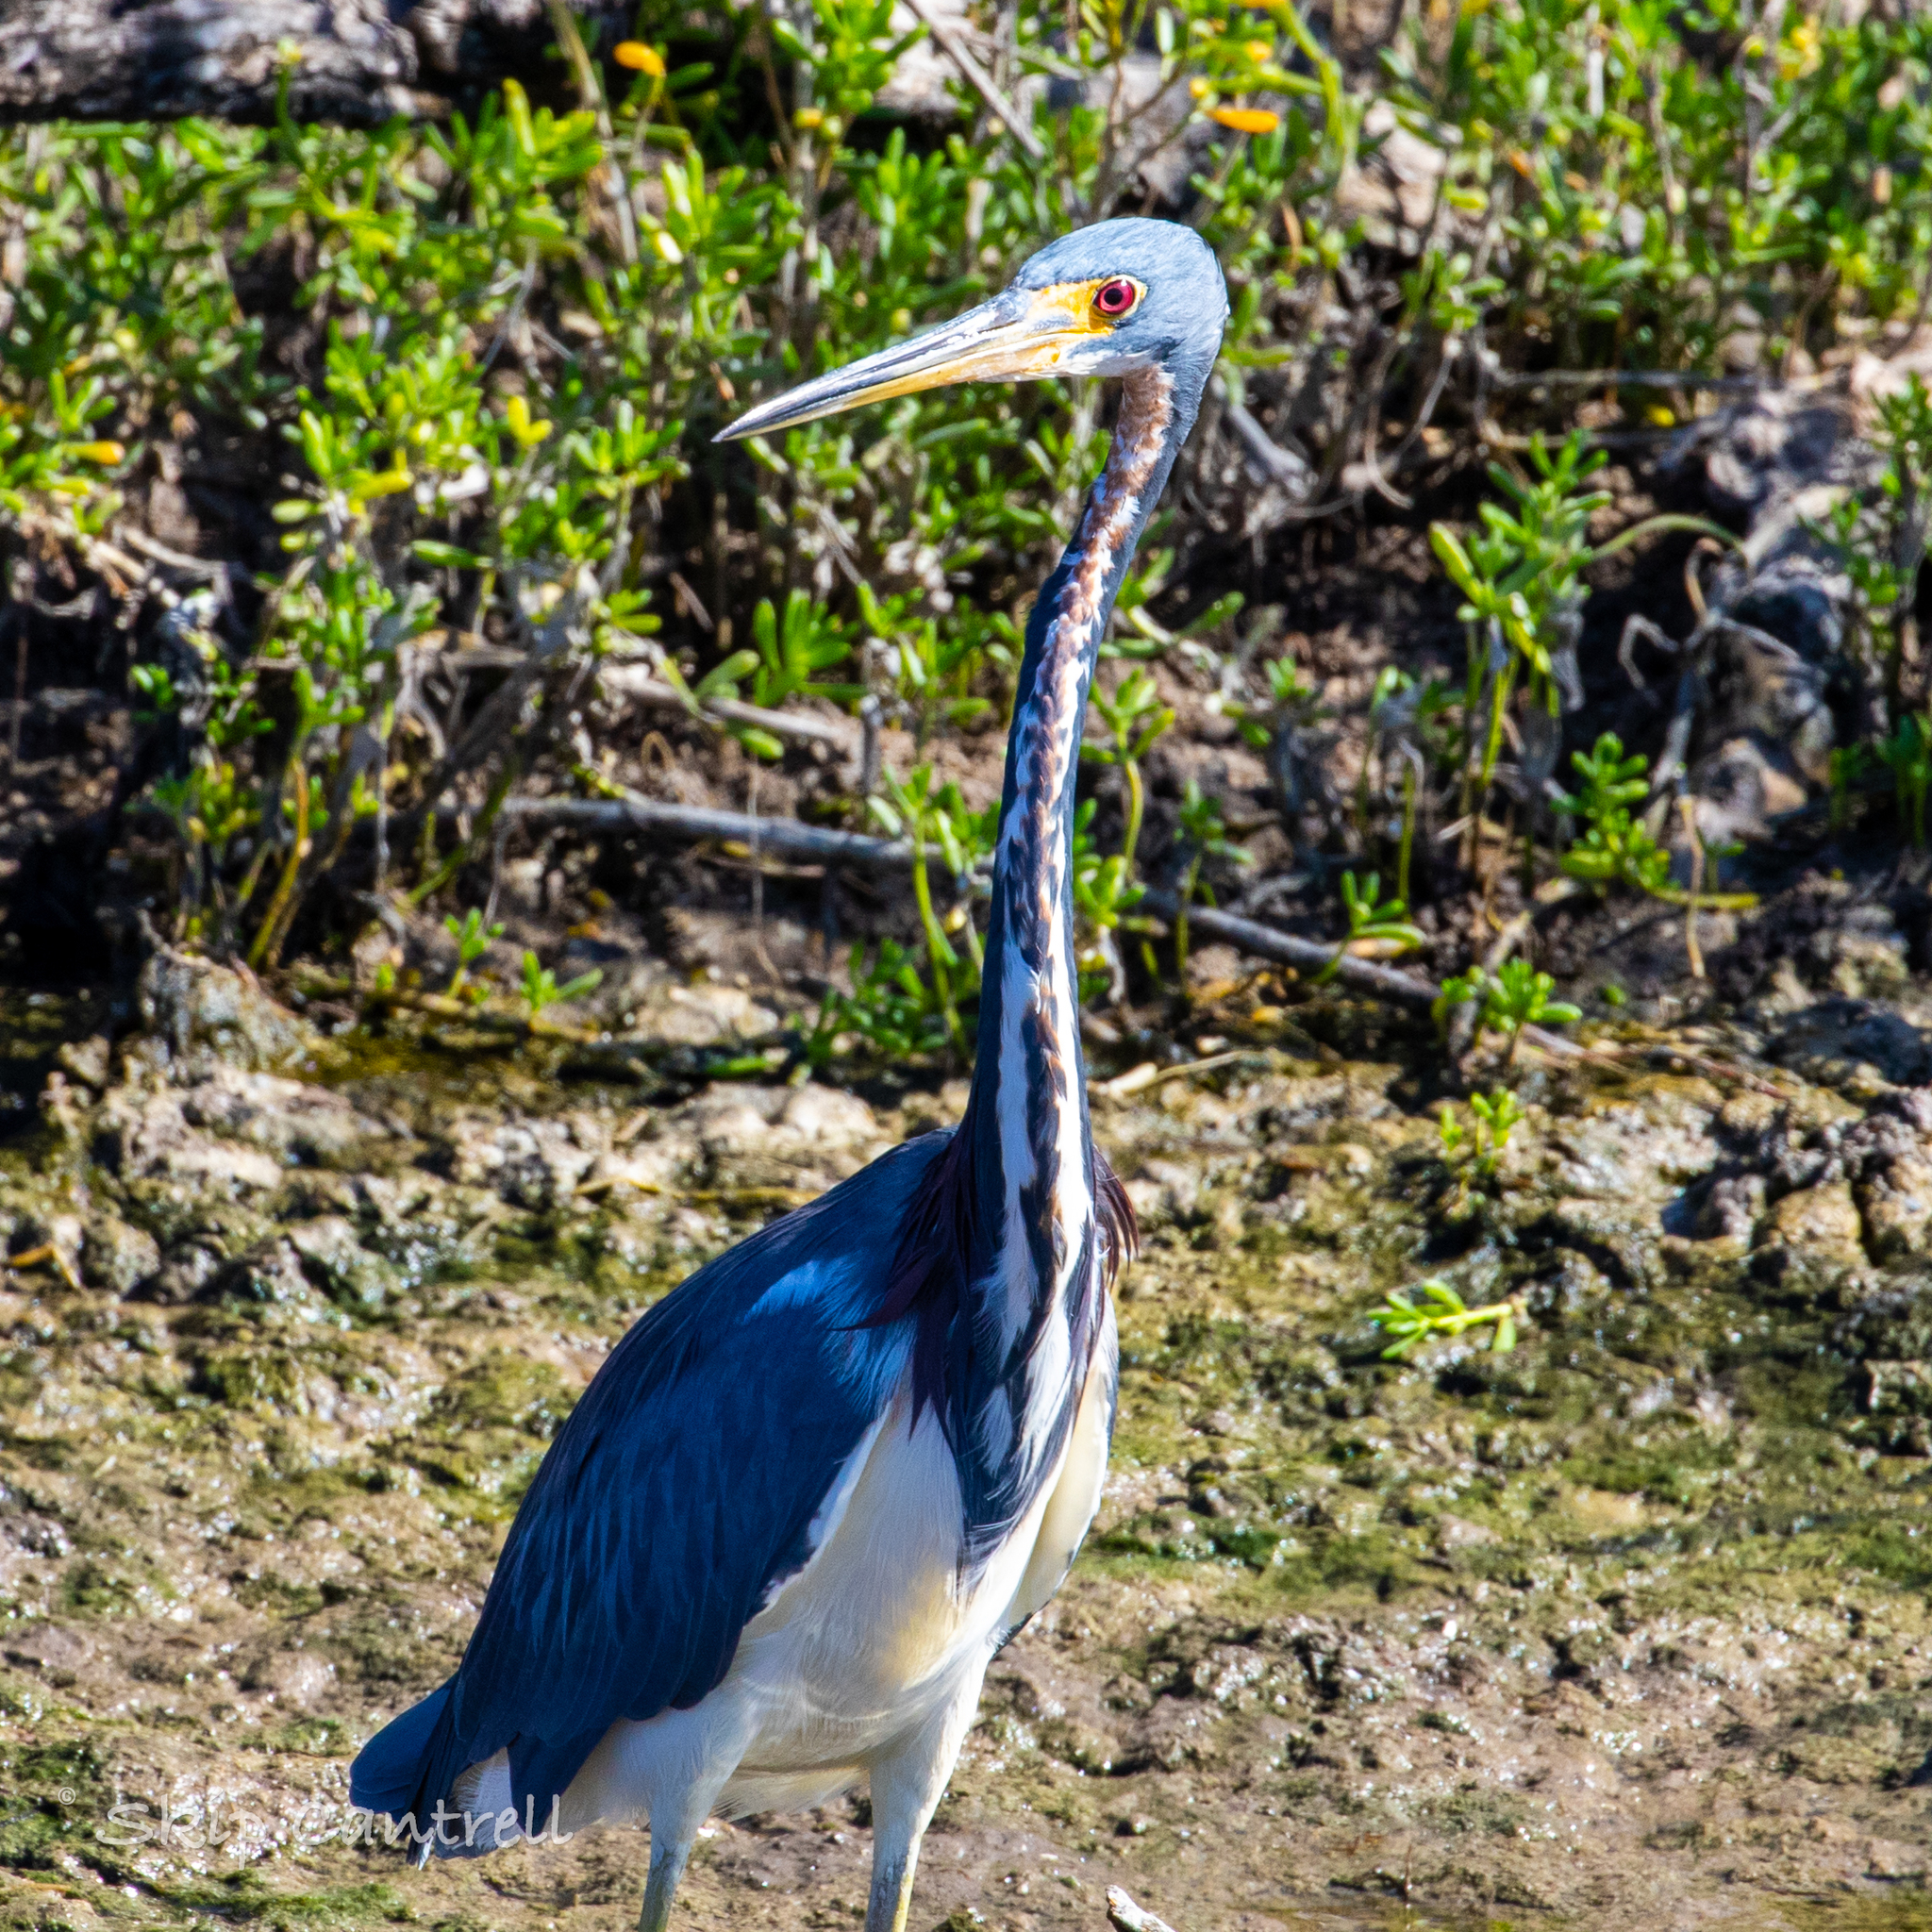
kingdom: Animalia
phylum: Chordata
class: Aves
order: Pelecaniformes
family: Ardeidae
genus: Egretta
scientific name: Egretta tricolor
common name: Tricolored heron
